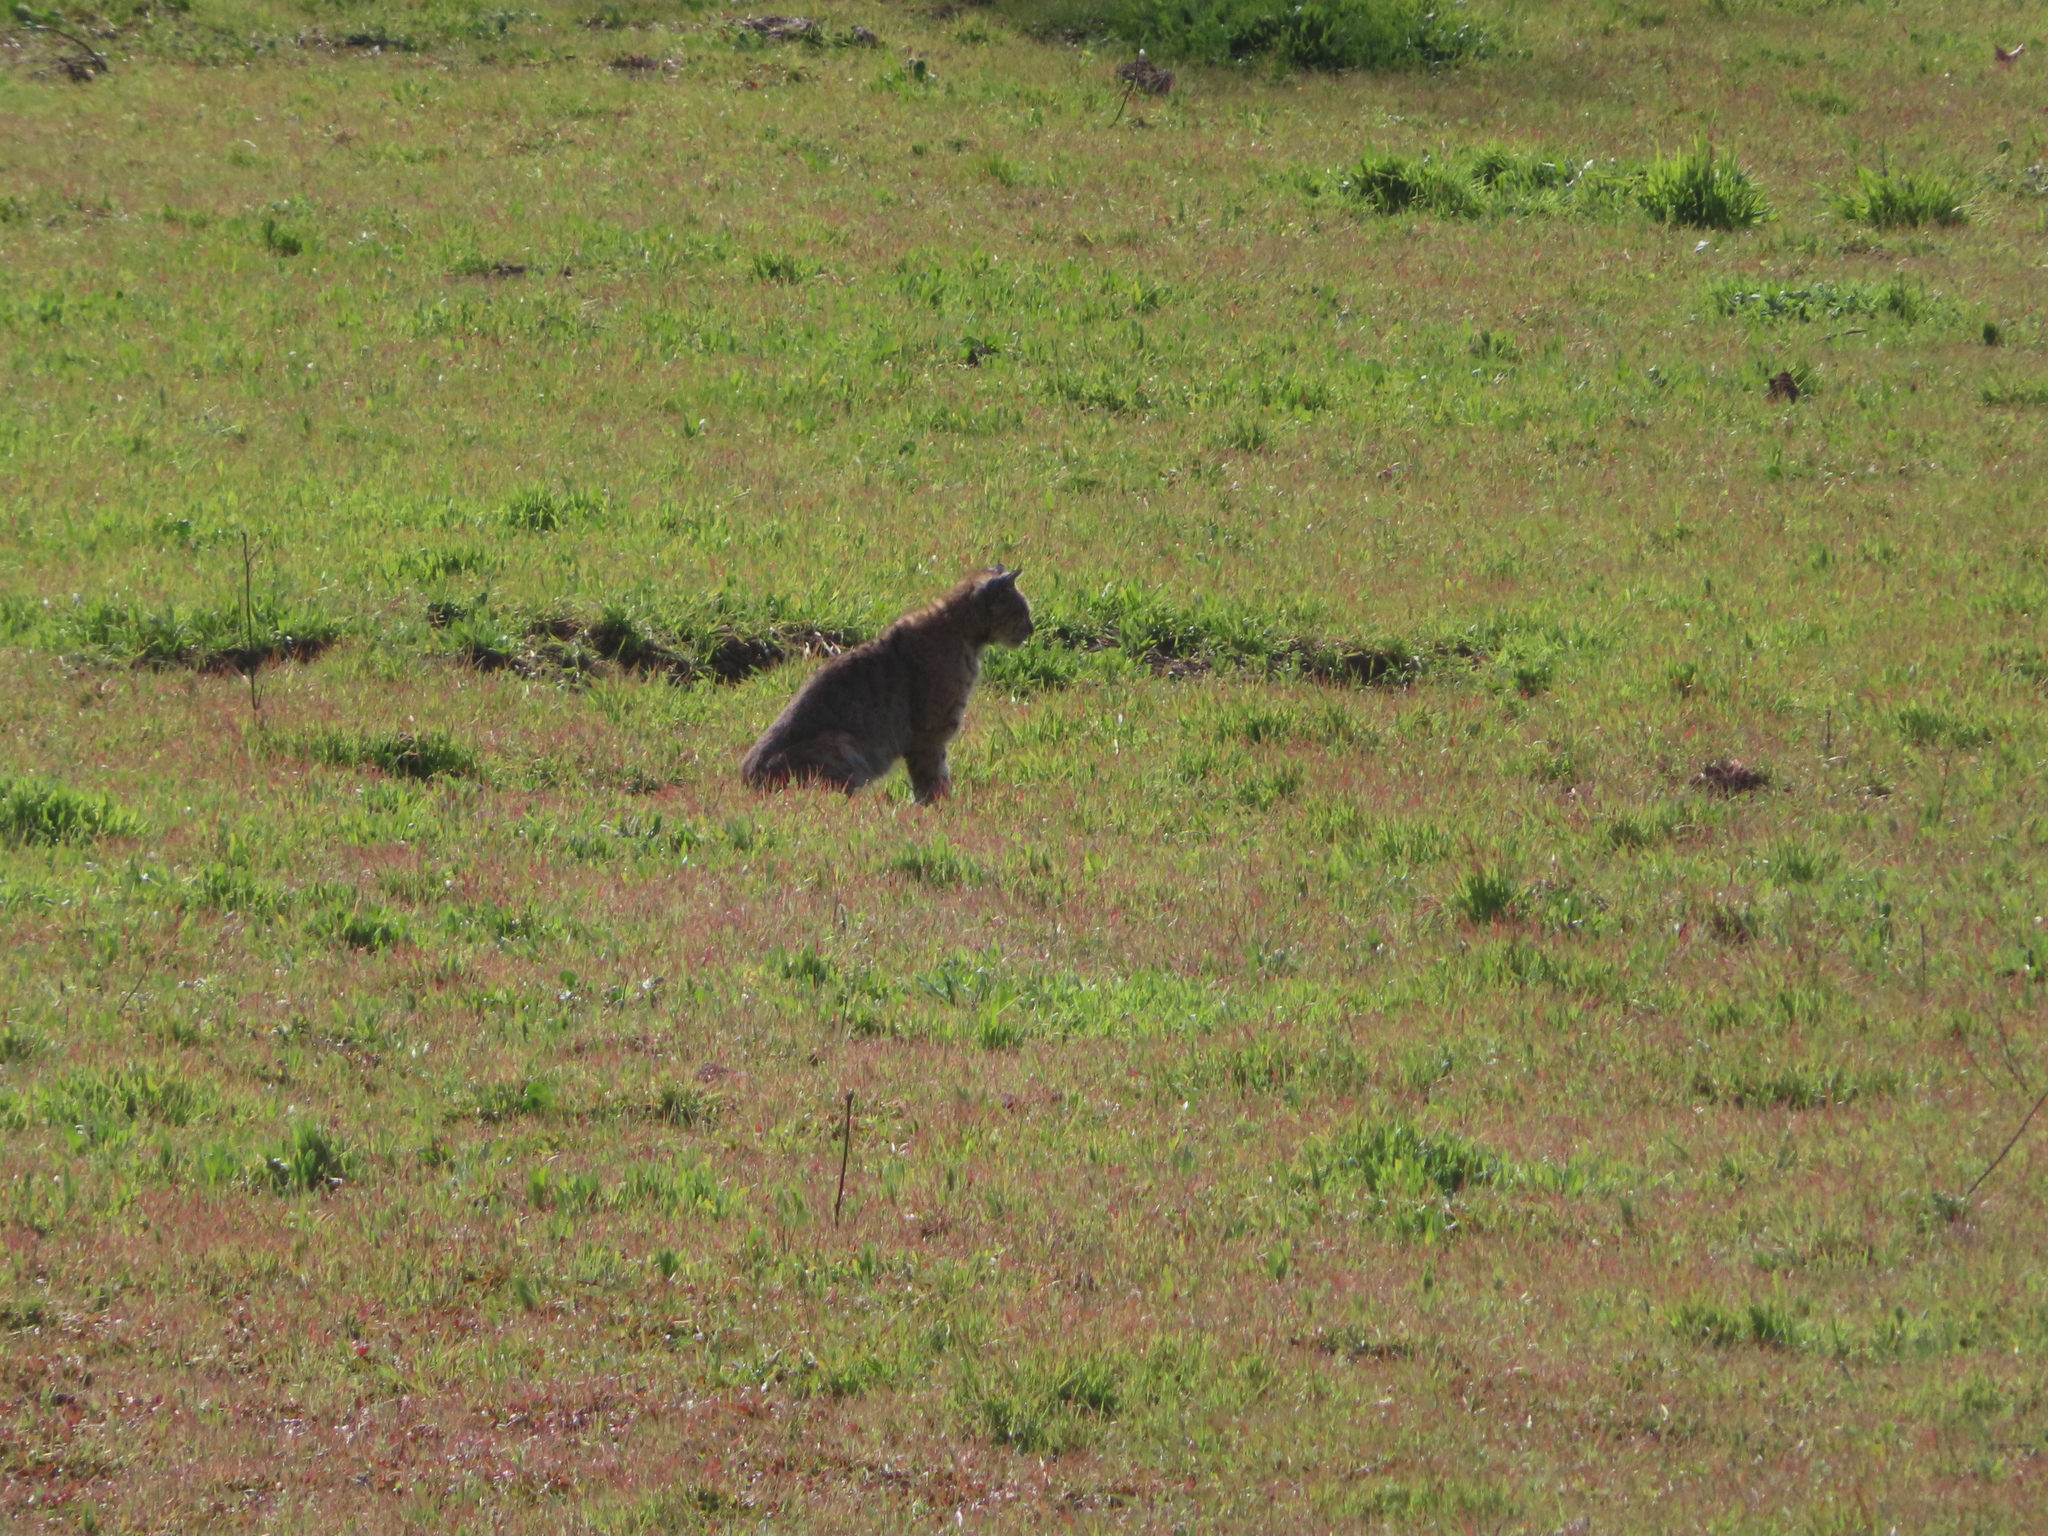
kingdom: Animalia
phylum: Chordata
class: Mammalia
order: Carnivora
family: Felidae
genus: Lynx
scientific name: Lynx rufus
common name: Bobcat
